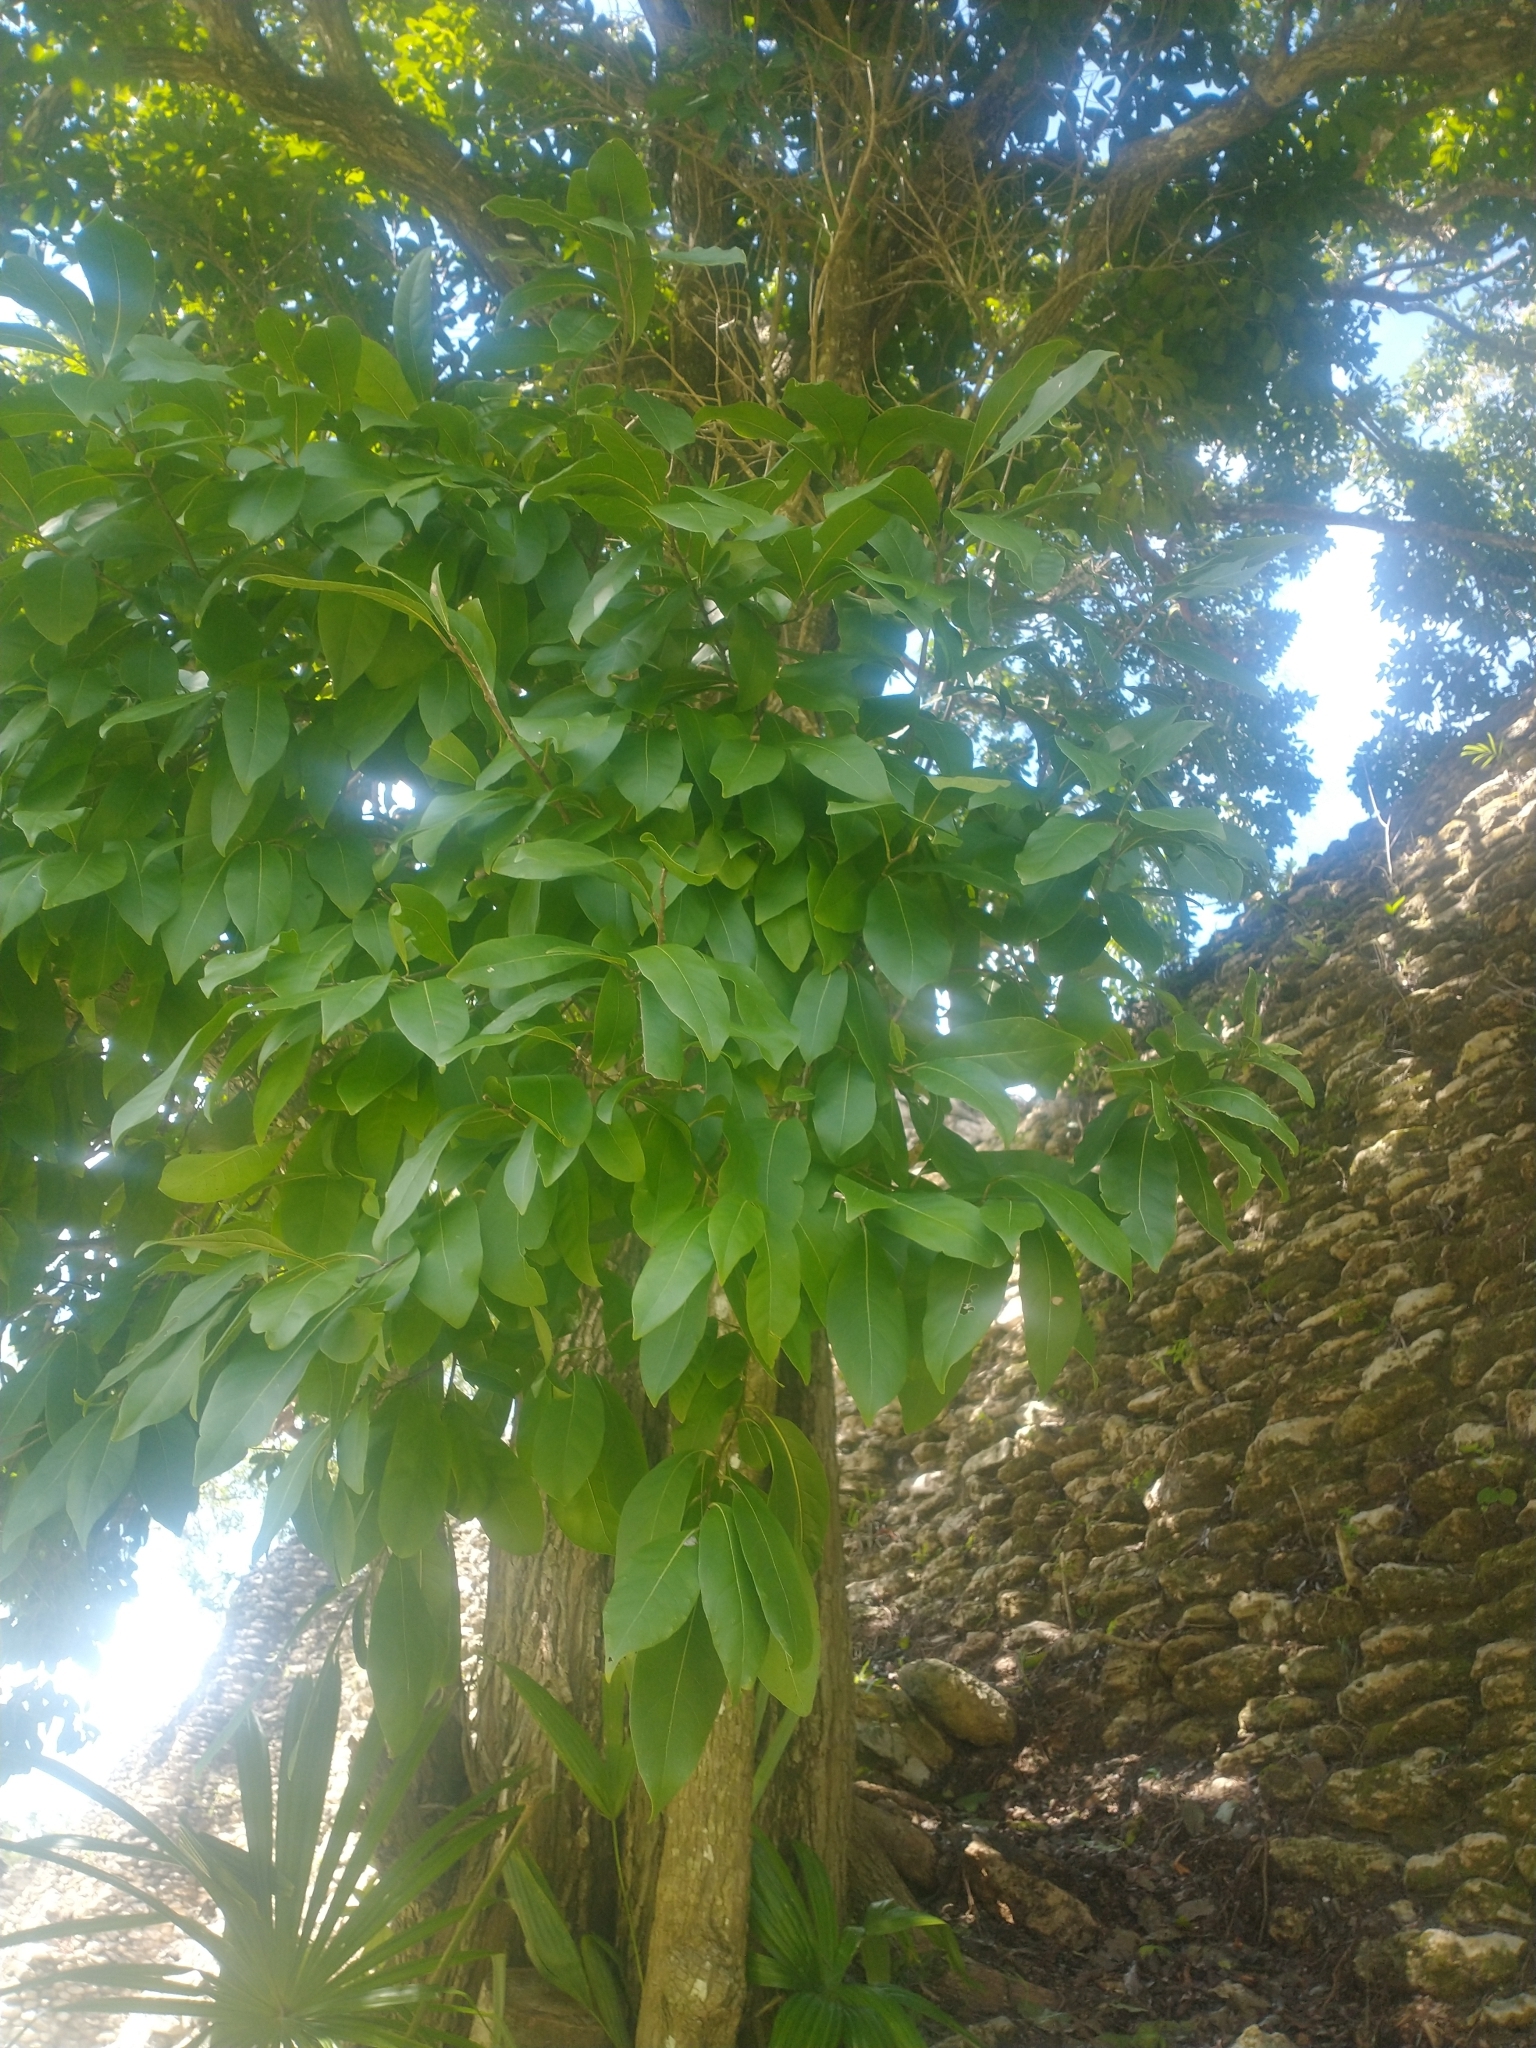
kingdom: Plantae
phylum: Tracheophyta
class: Magnoliopsida
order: Boraginales
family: Ehretiaceae
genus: Ehretia
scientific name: Ehretia tinifolia
